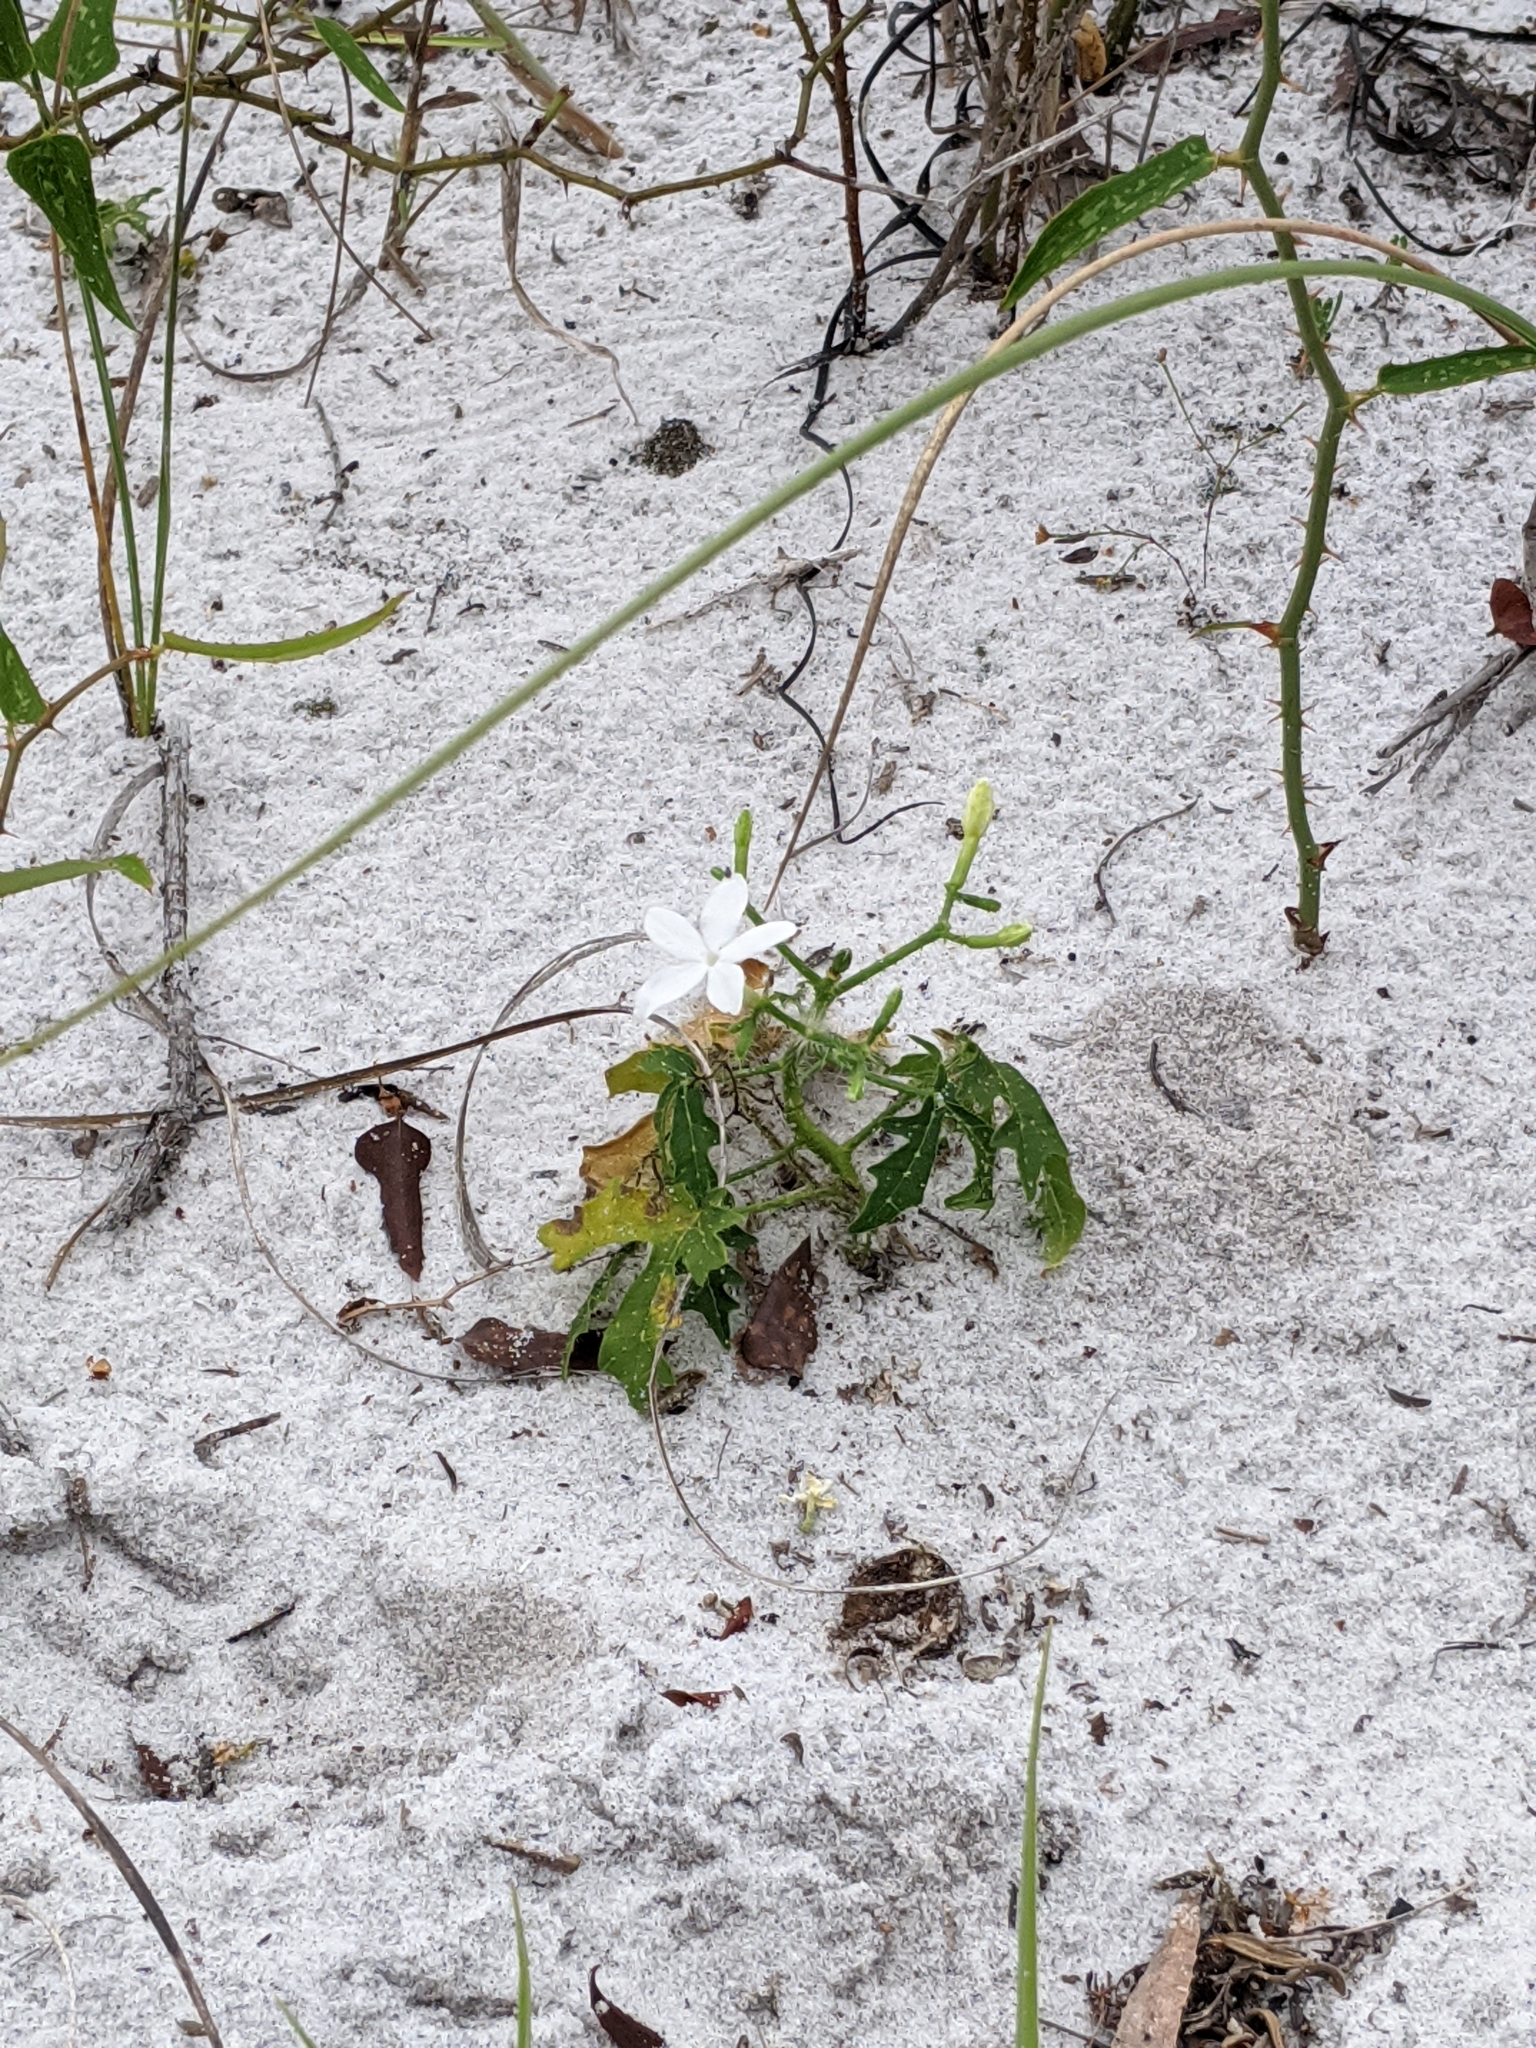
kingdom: Plantae
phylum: Tracheophyta
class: Magnoliopsida
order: Malpighiales
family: Euphorbiaceae
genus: Cnidoscolus
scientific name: Cnidoscolus stimulosus
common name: Bull-nettle
